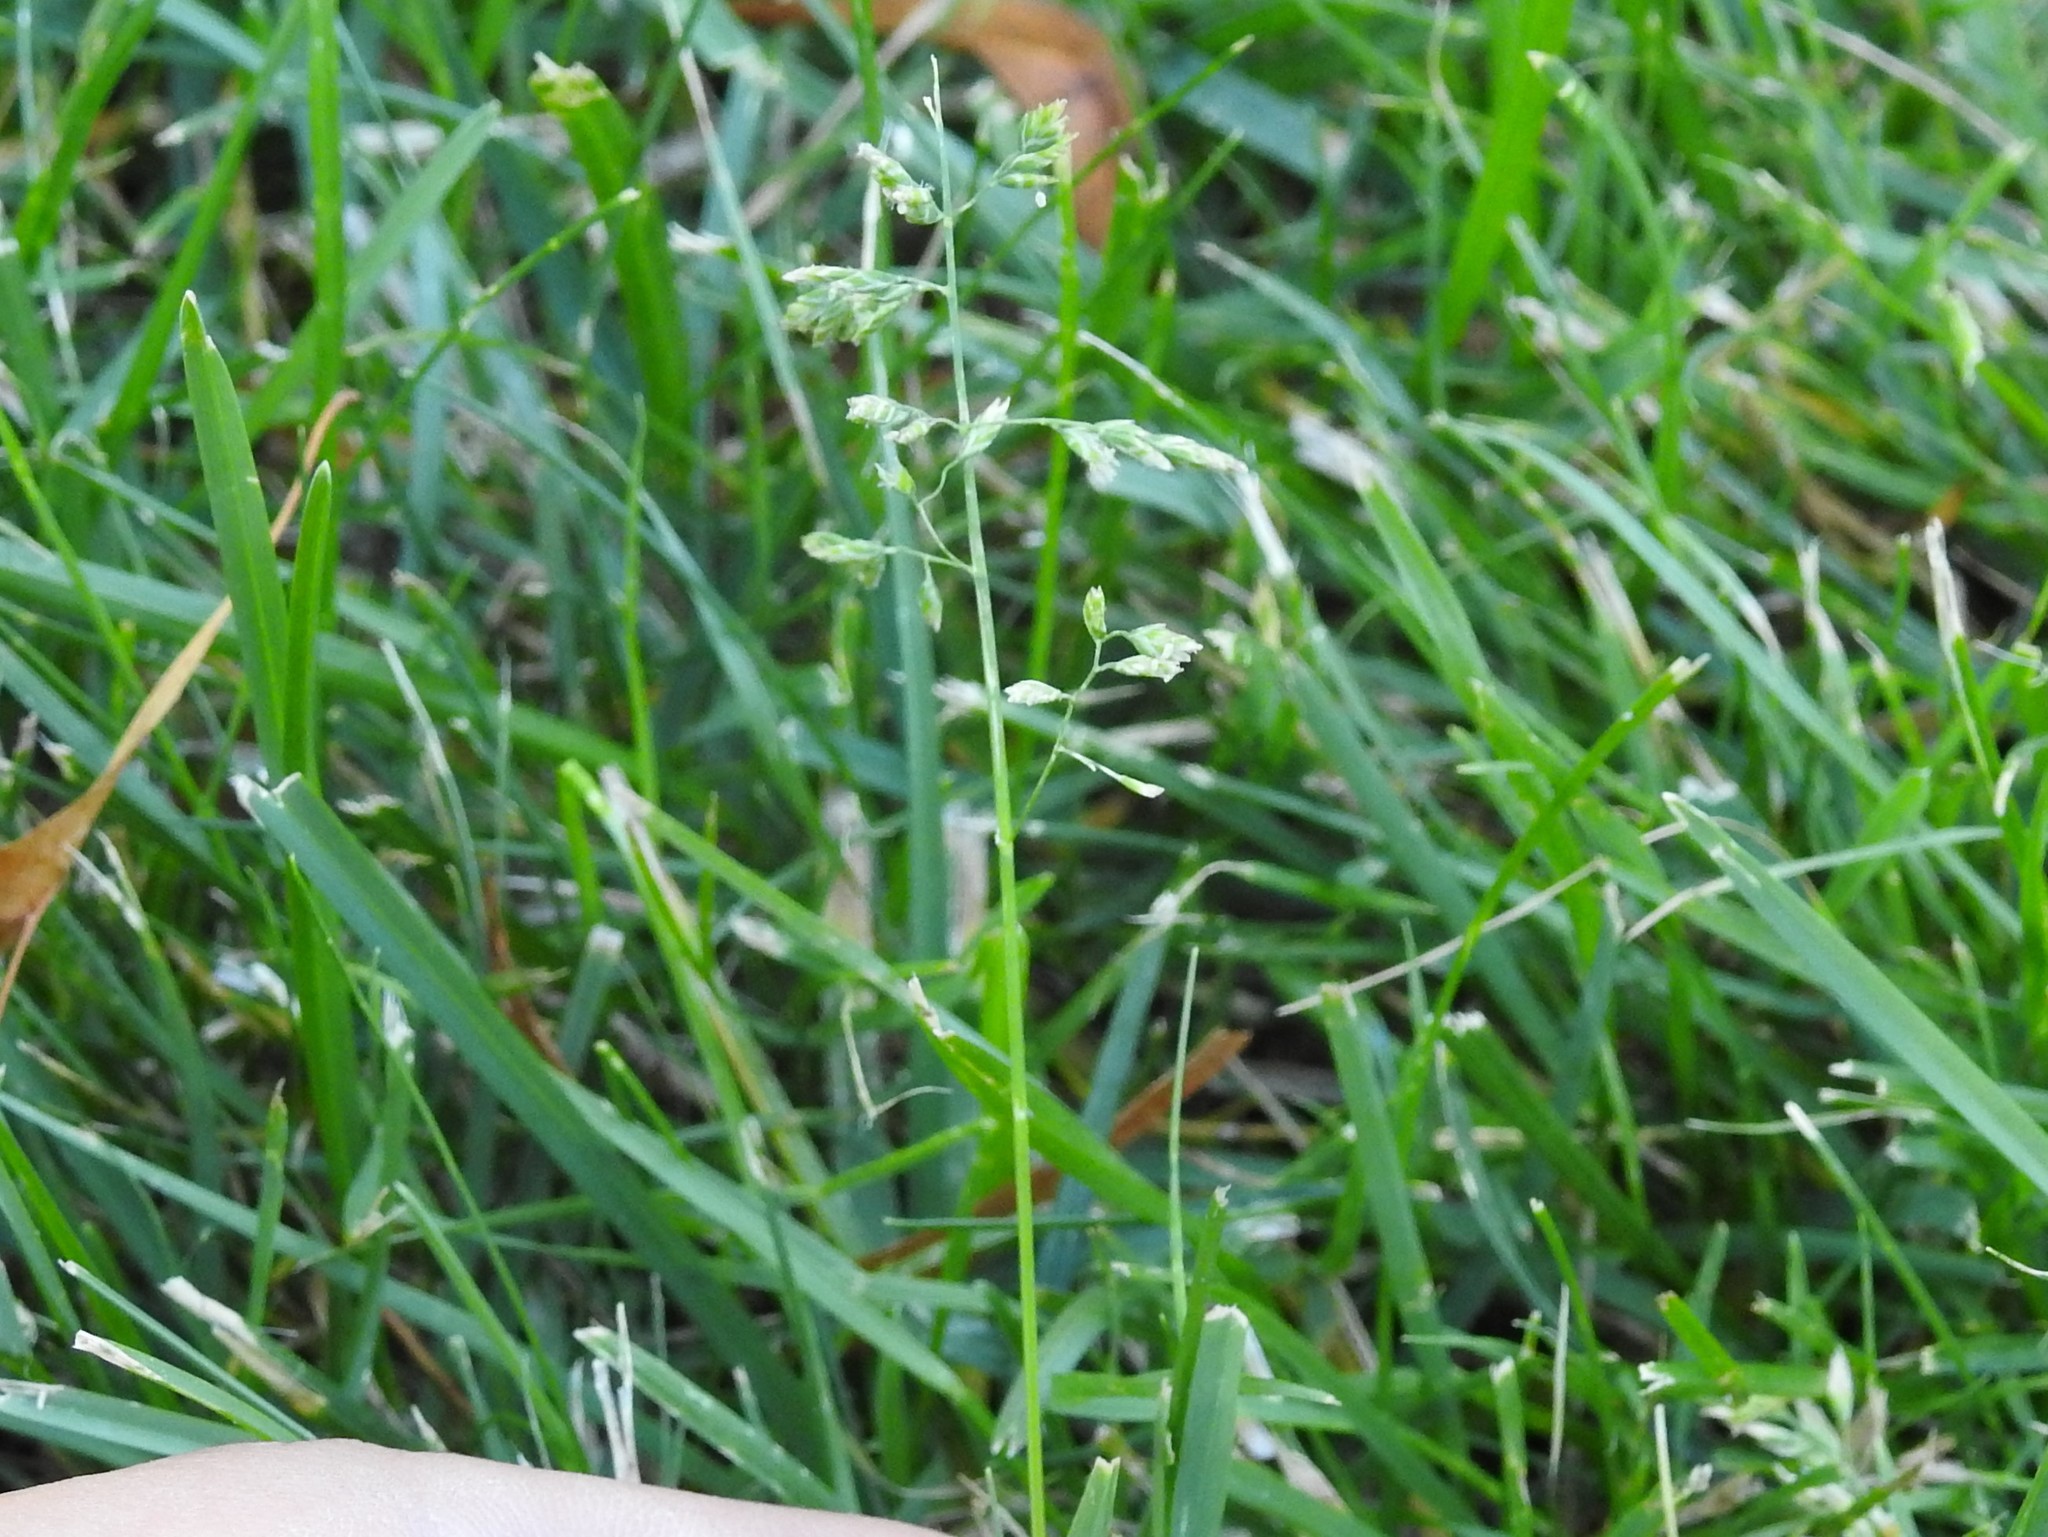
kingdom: Plantae
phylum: Tracheophyta
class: Liliopsida
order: Poales
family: Poaceae
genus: Poa
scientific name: Poa pratensis
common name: Kentucky bluegrass
